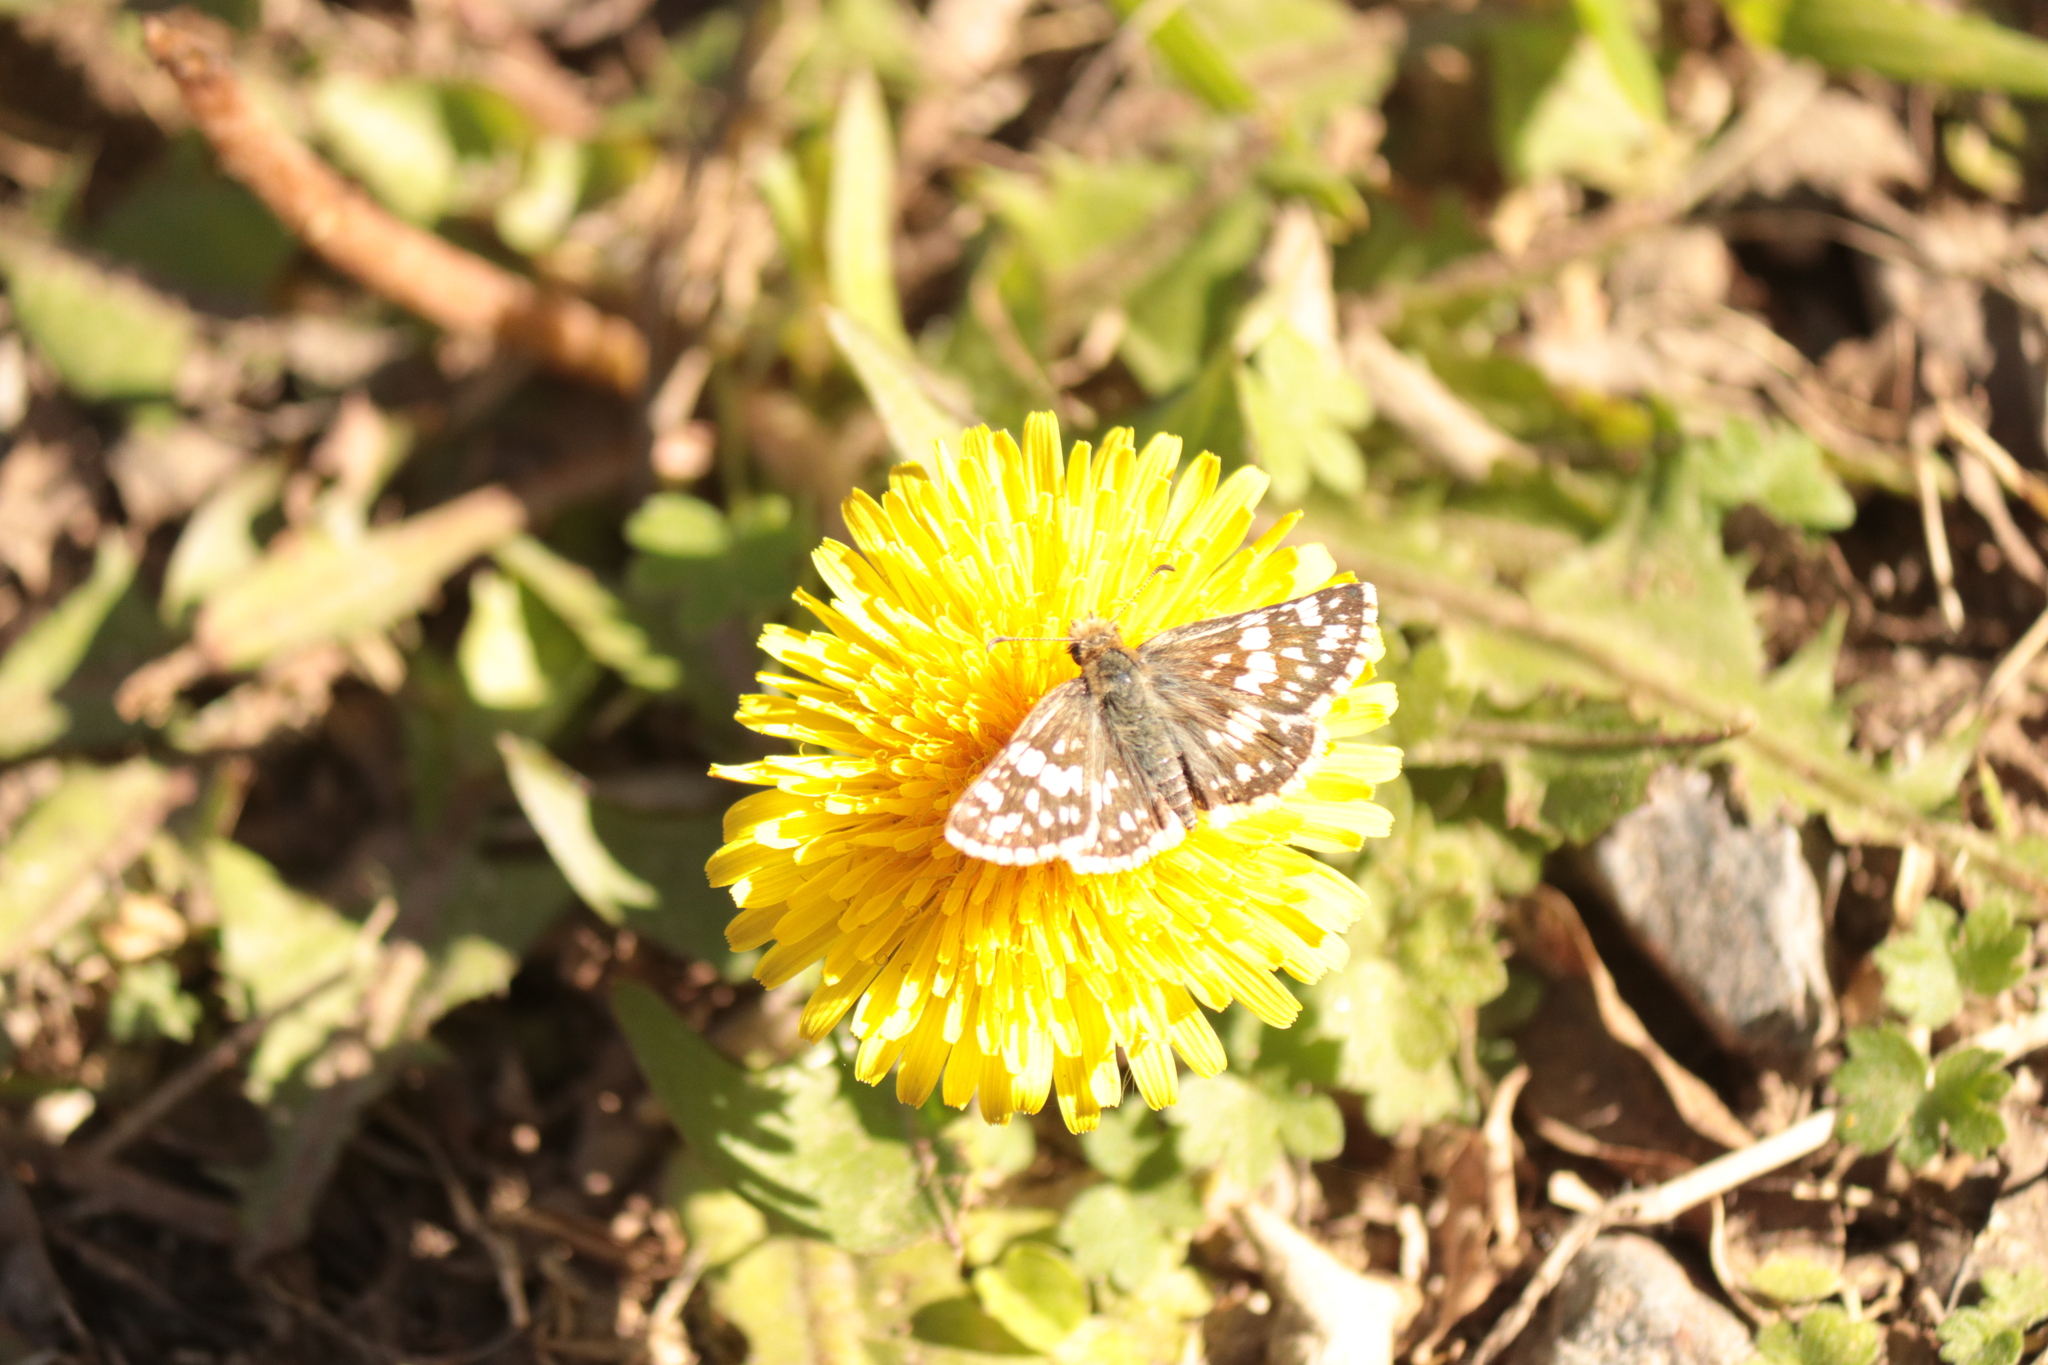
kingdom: Animalia
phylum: Arthropoda
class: Insecta
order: Lepidoptera
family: Hesperiidae
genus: Burnsius
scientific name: Burnsius orcynoides
